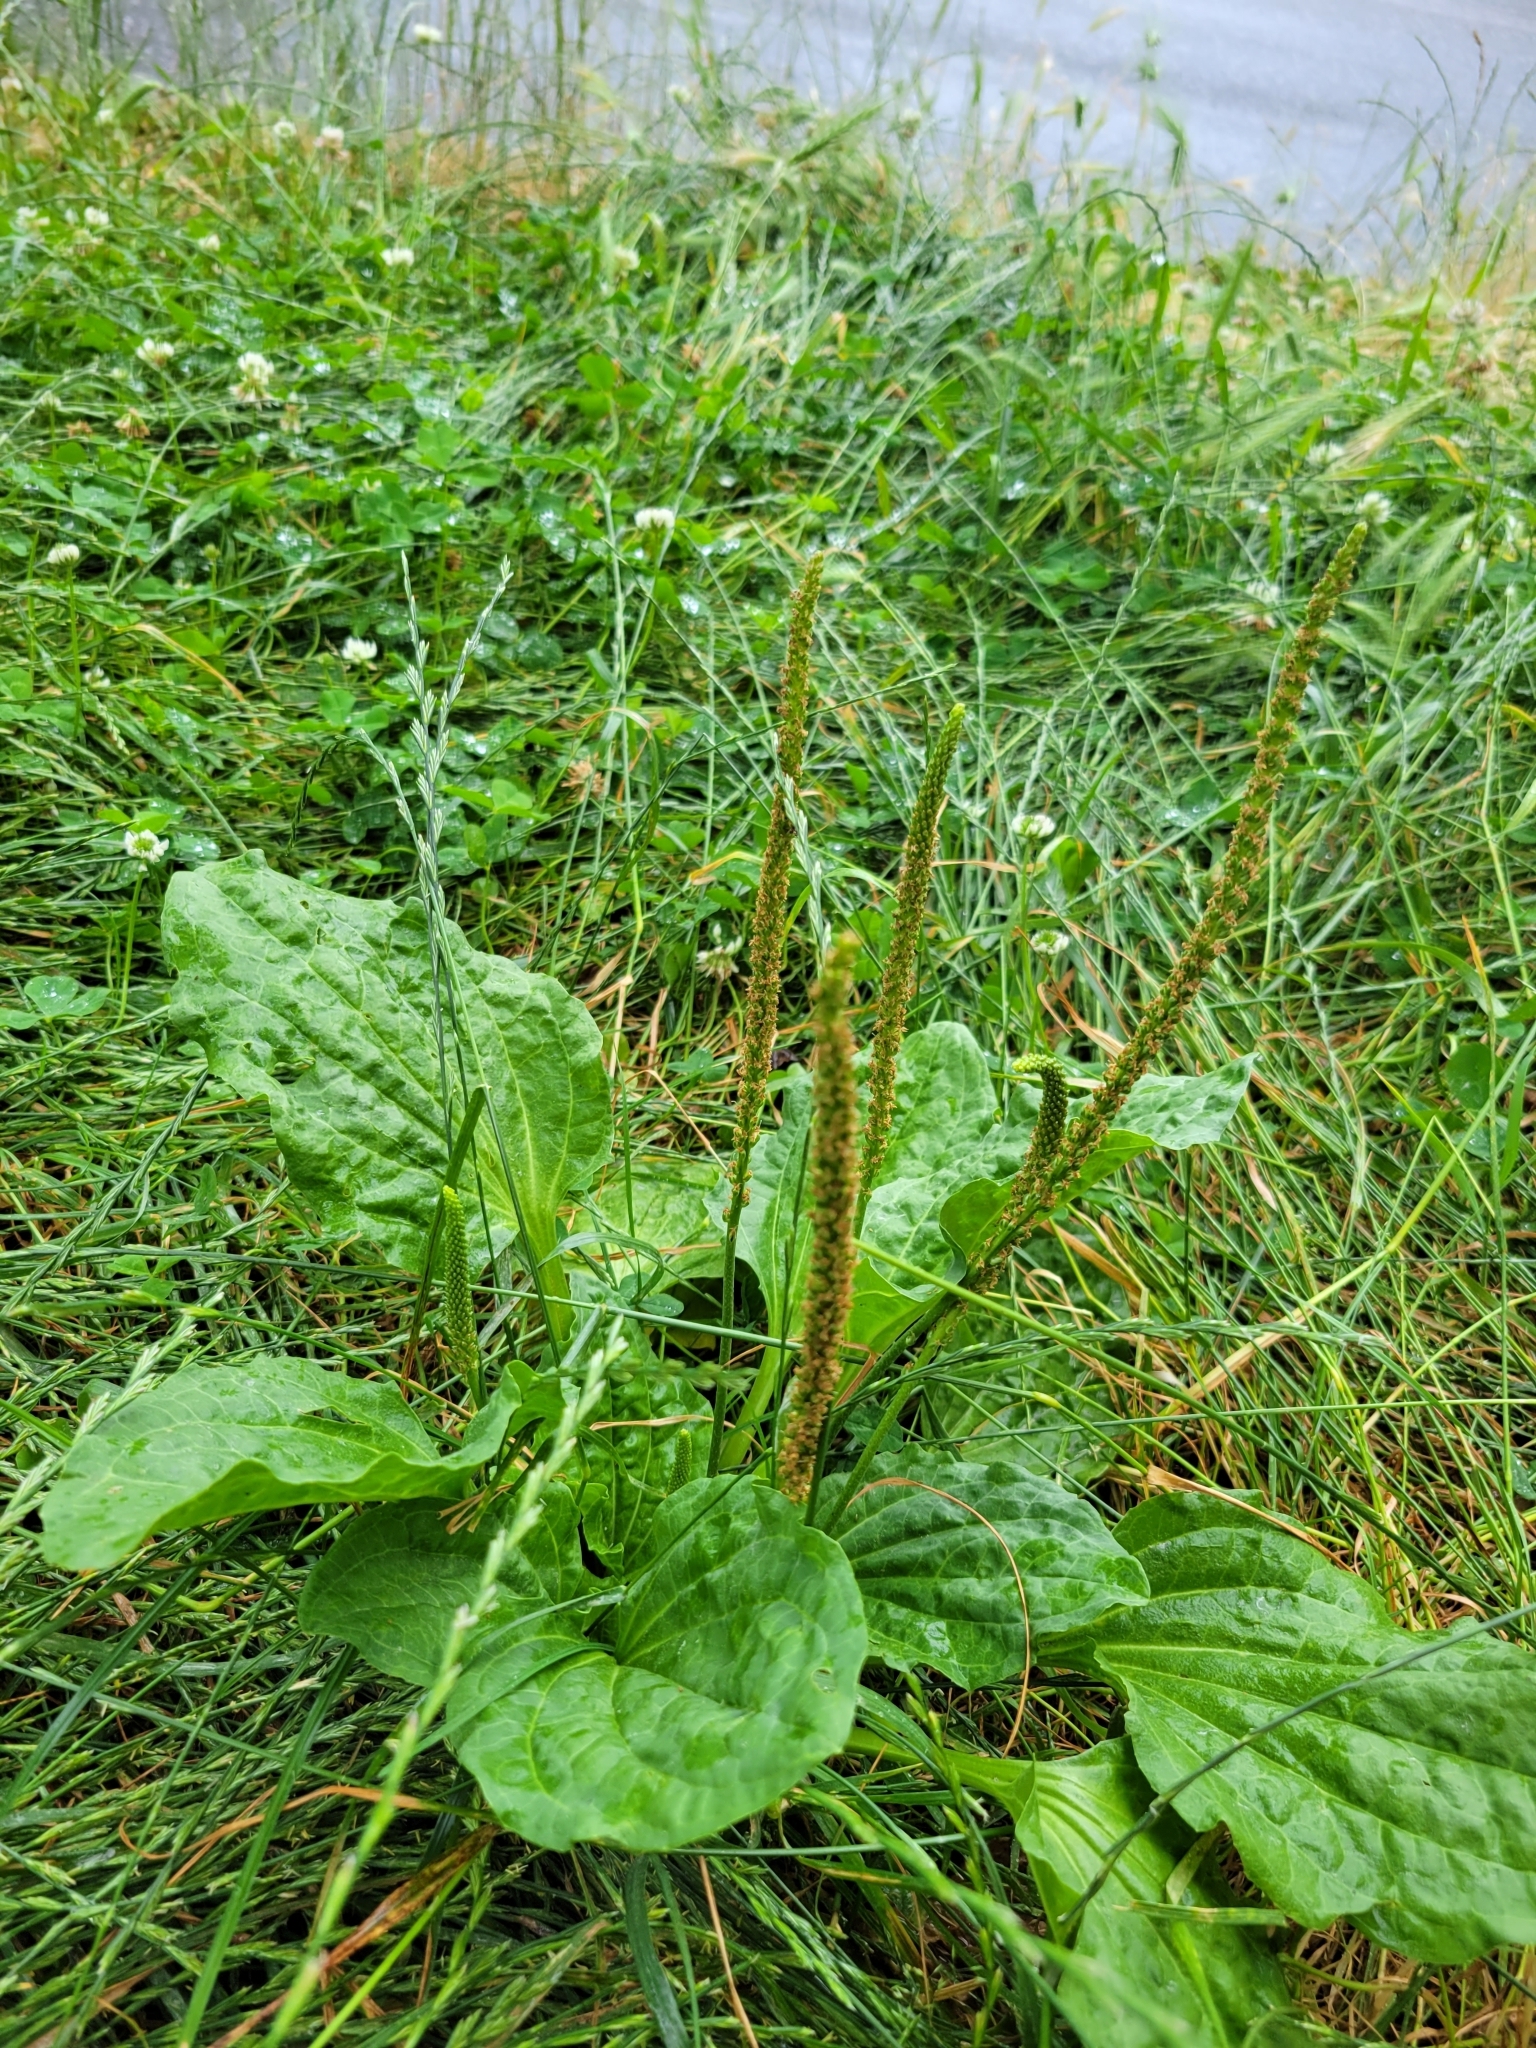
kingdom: Plantae
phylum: Tracheophyta
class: Magnoliopsida
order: Lamiales
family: Plantaginaceae
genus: Plantago
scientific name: Plantago major
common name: Common plantain
